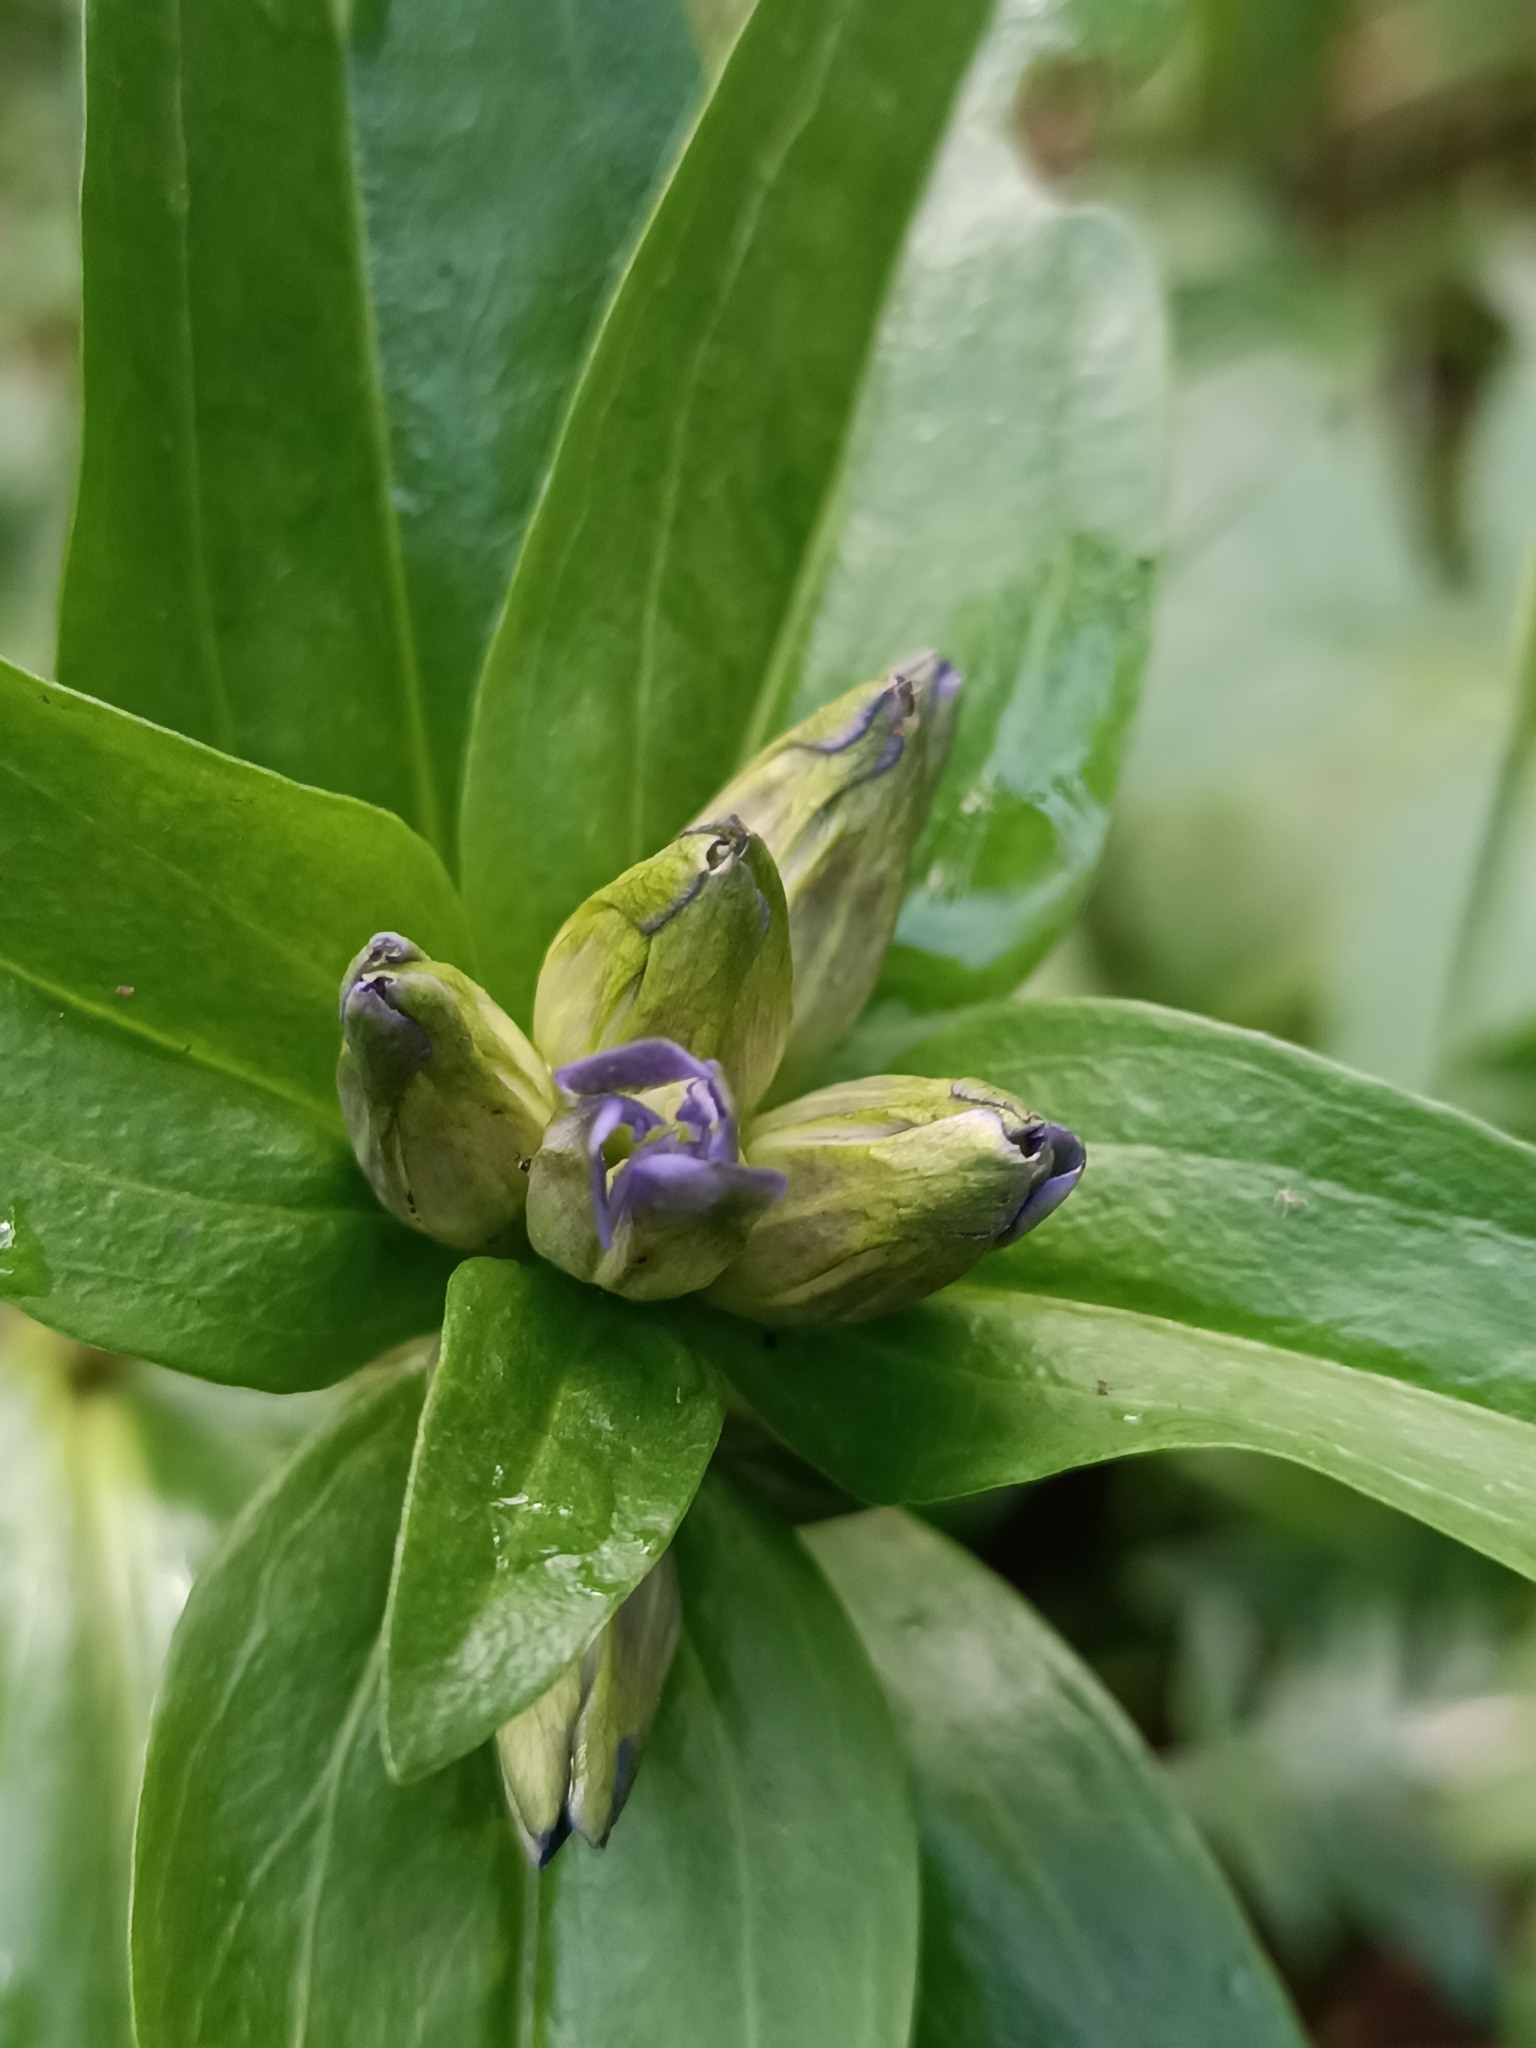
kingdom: Plantae
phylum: Tracheophyta
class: Magnoliopsida
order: Gentianales
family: Gentianaceae
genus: Gentiana
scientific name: Gentiana cruciata
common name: Cross gentian
